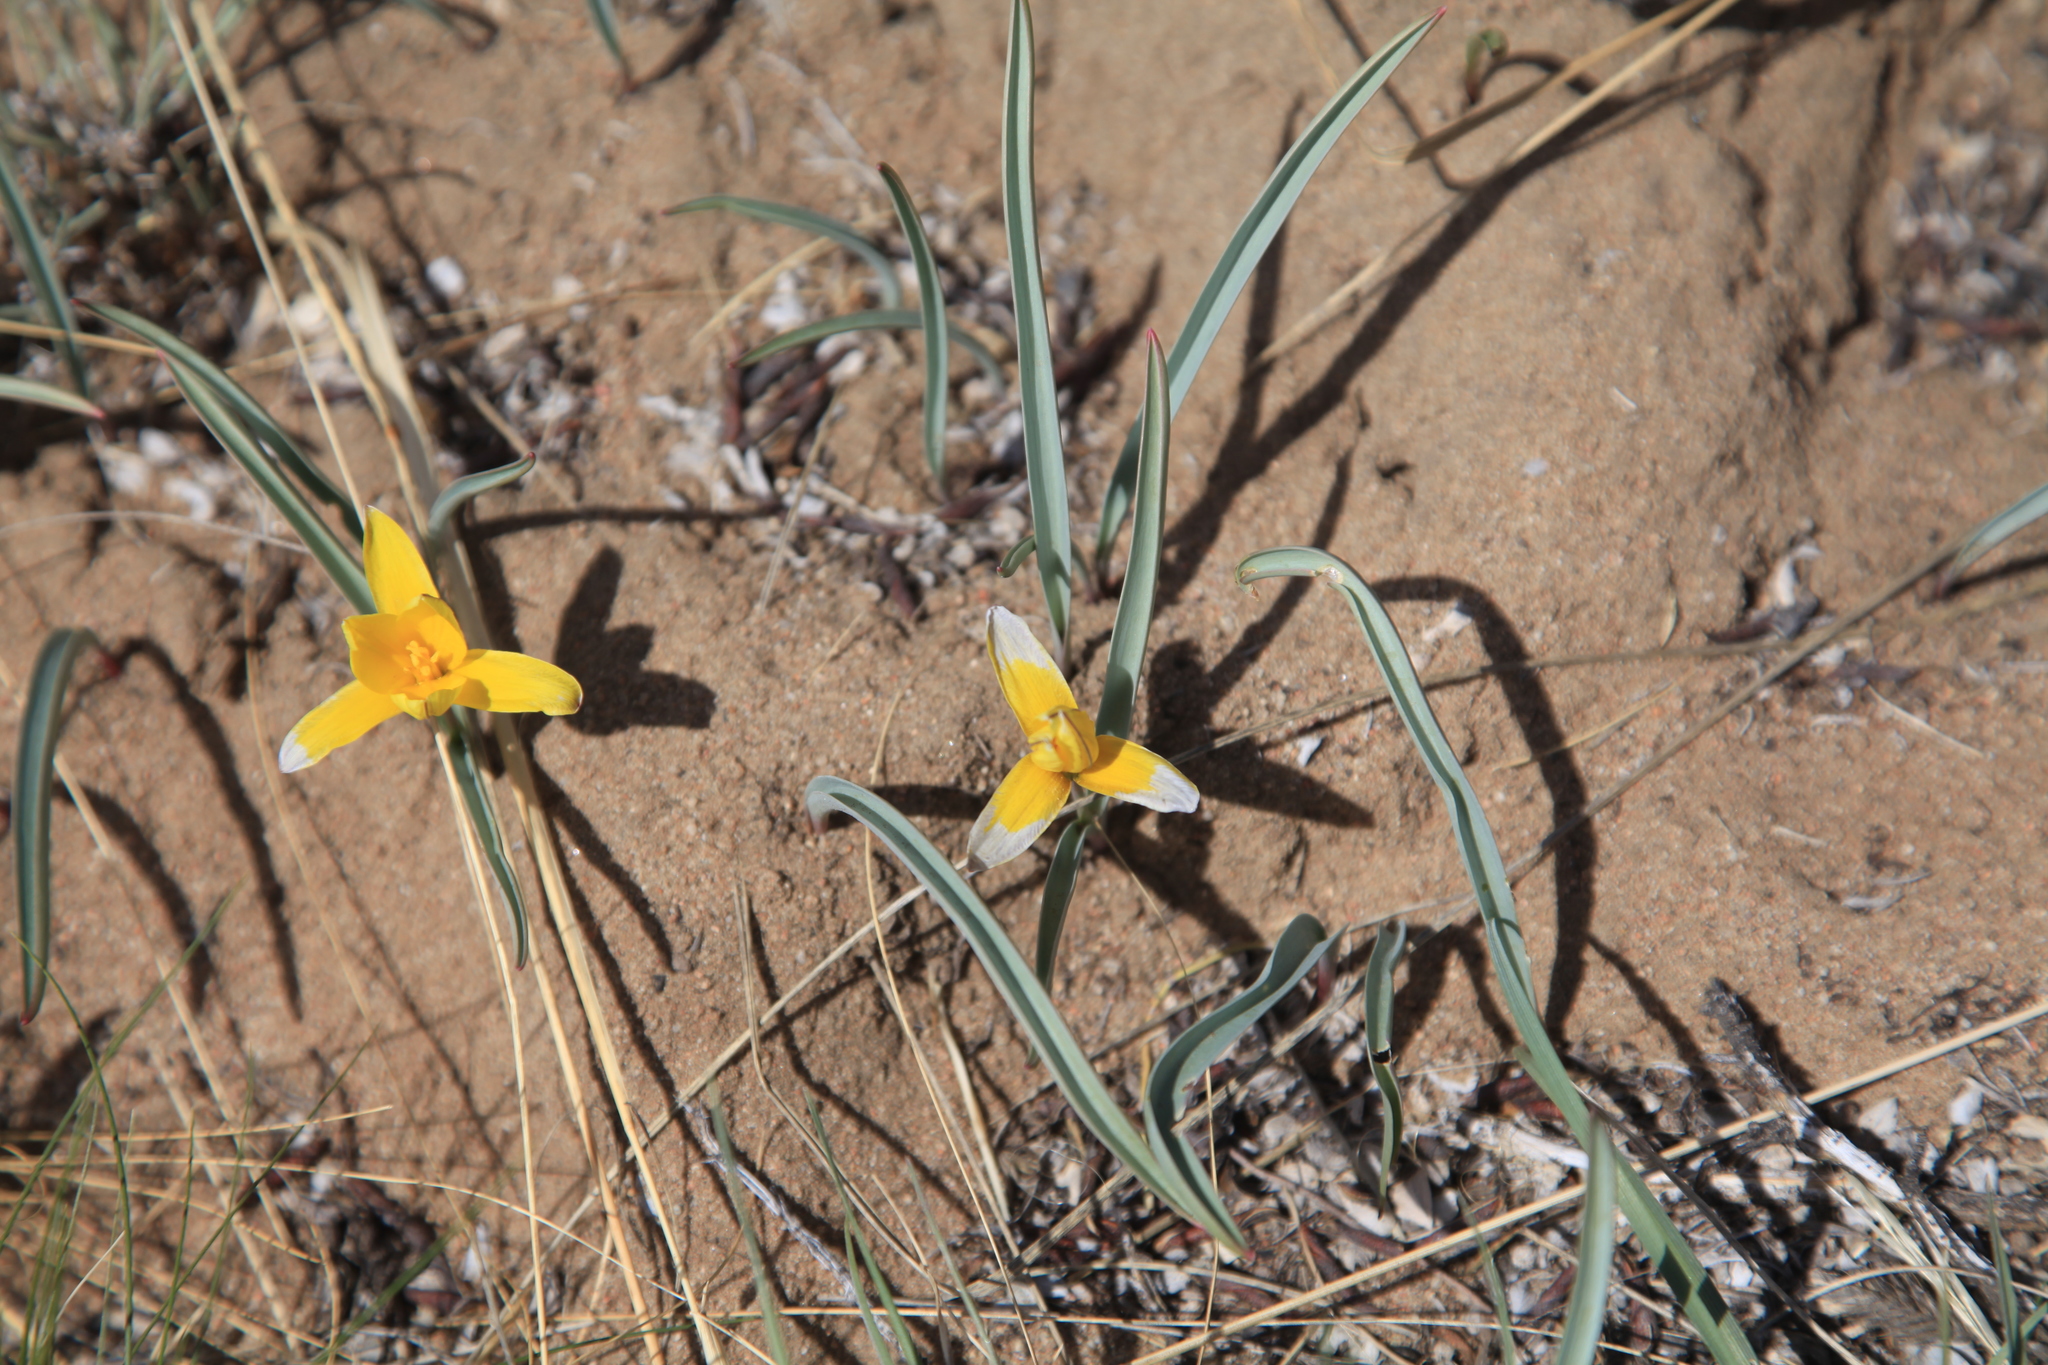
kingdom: Plantae
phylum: Tracheophyta
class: Liliopsida
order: Liliales
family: Liliaceae
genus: Tulipa
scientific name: Tulipa uniflora
